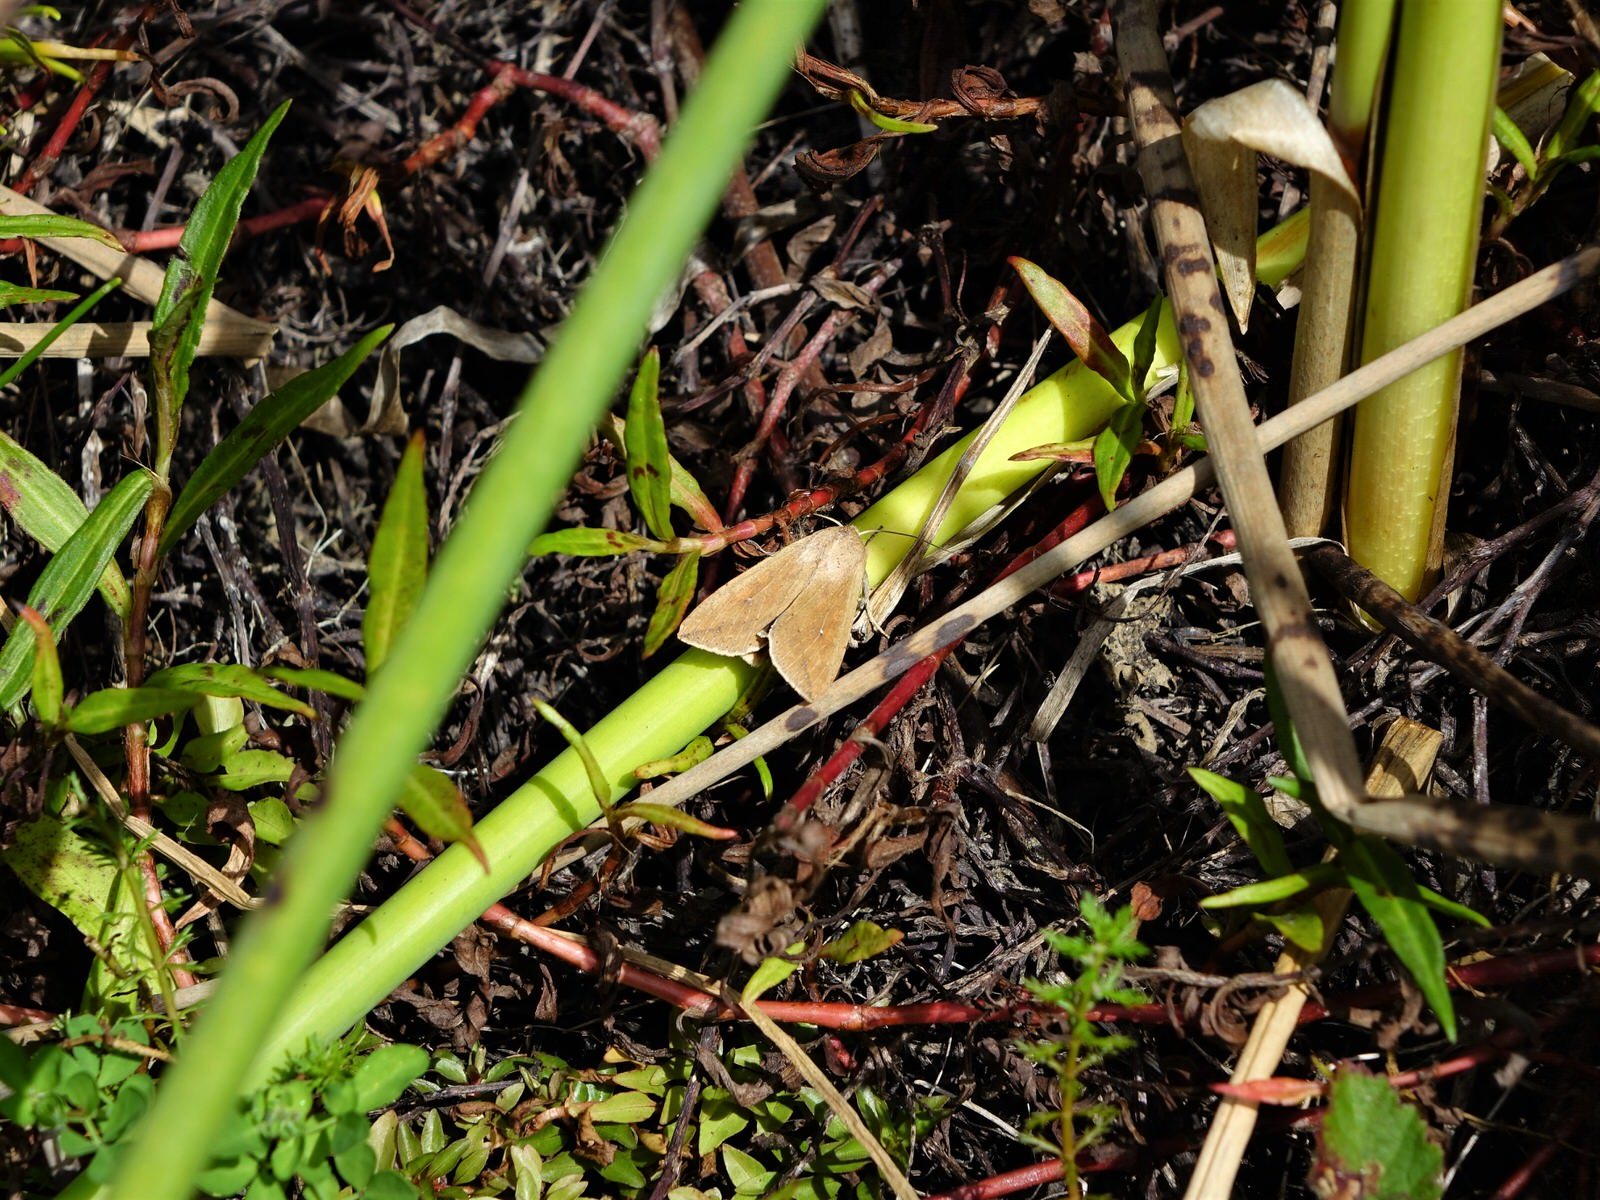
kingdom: Animalia
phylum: Arthropoda
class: Insecta
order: Lepidoptera
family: Noctuidae
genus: Mythimna
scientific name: Mythimna separata
